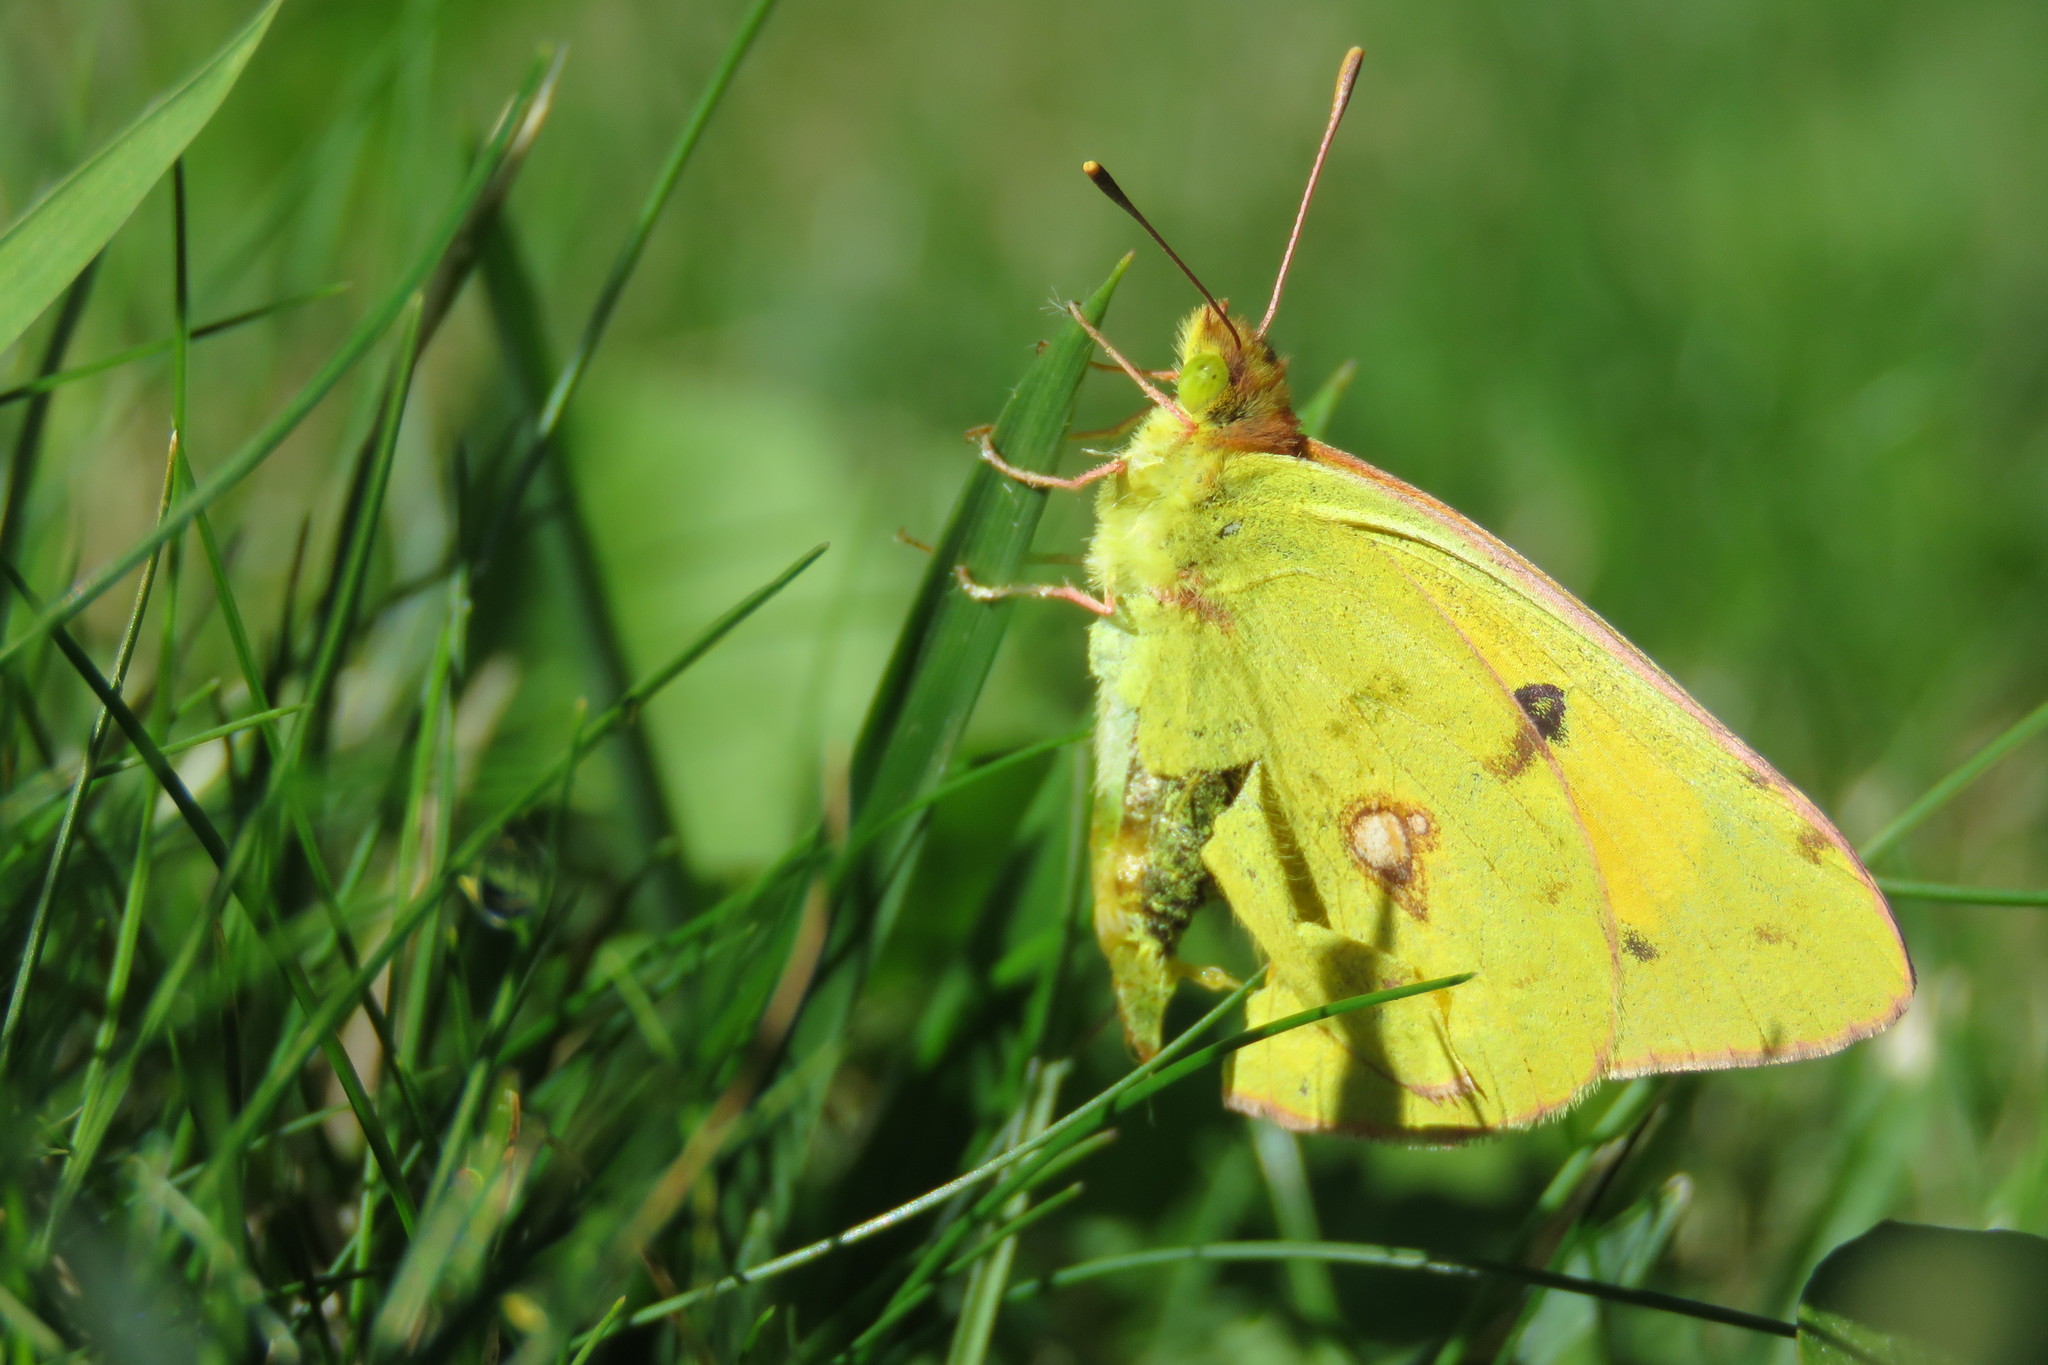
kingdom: Animalia
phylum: Arthropoda
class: Insecta
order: Lepidoptera
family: Pieridae
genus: Colias
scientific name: Colias croceus
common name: Clouded yellow
